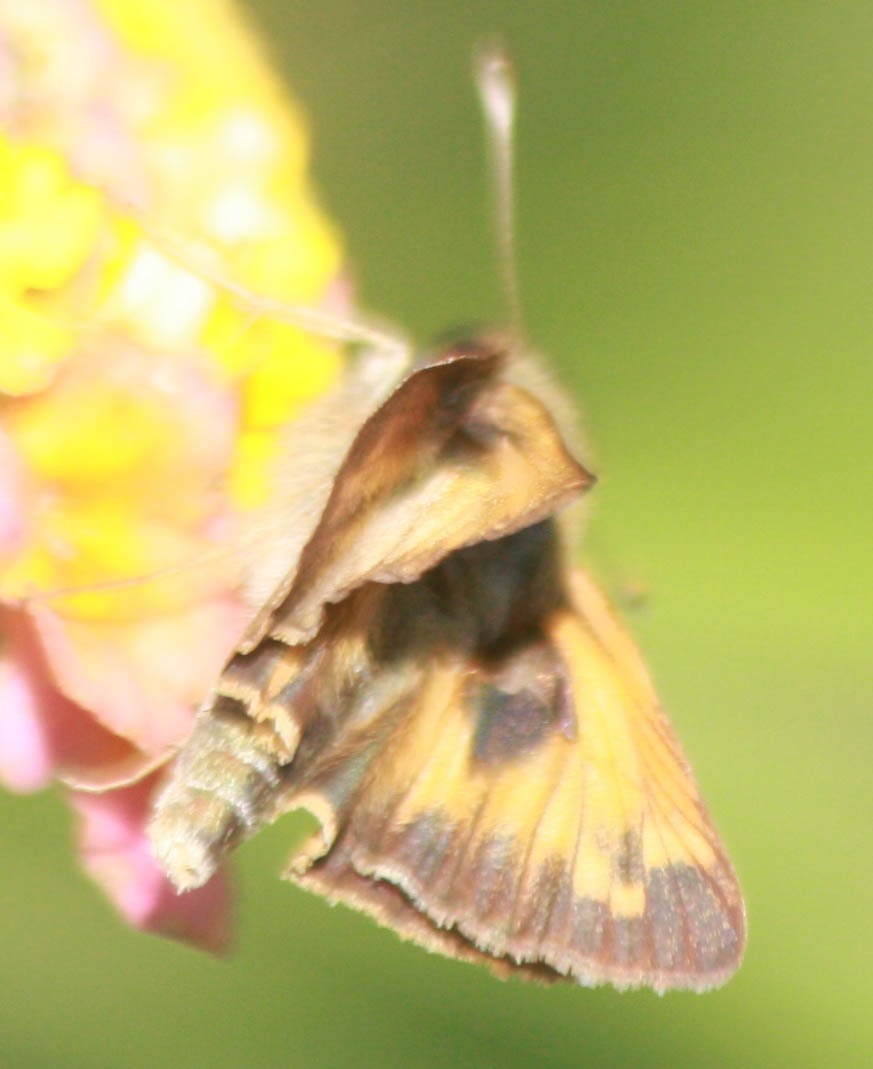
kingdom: Animalia
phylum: Arthropoda
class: Insecta
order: Lepidoptera
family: Hesperiidae
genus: Atalopedes
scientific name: Atalopedes
